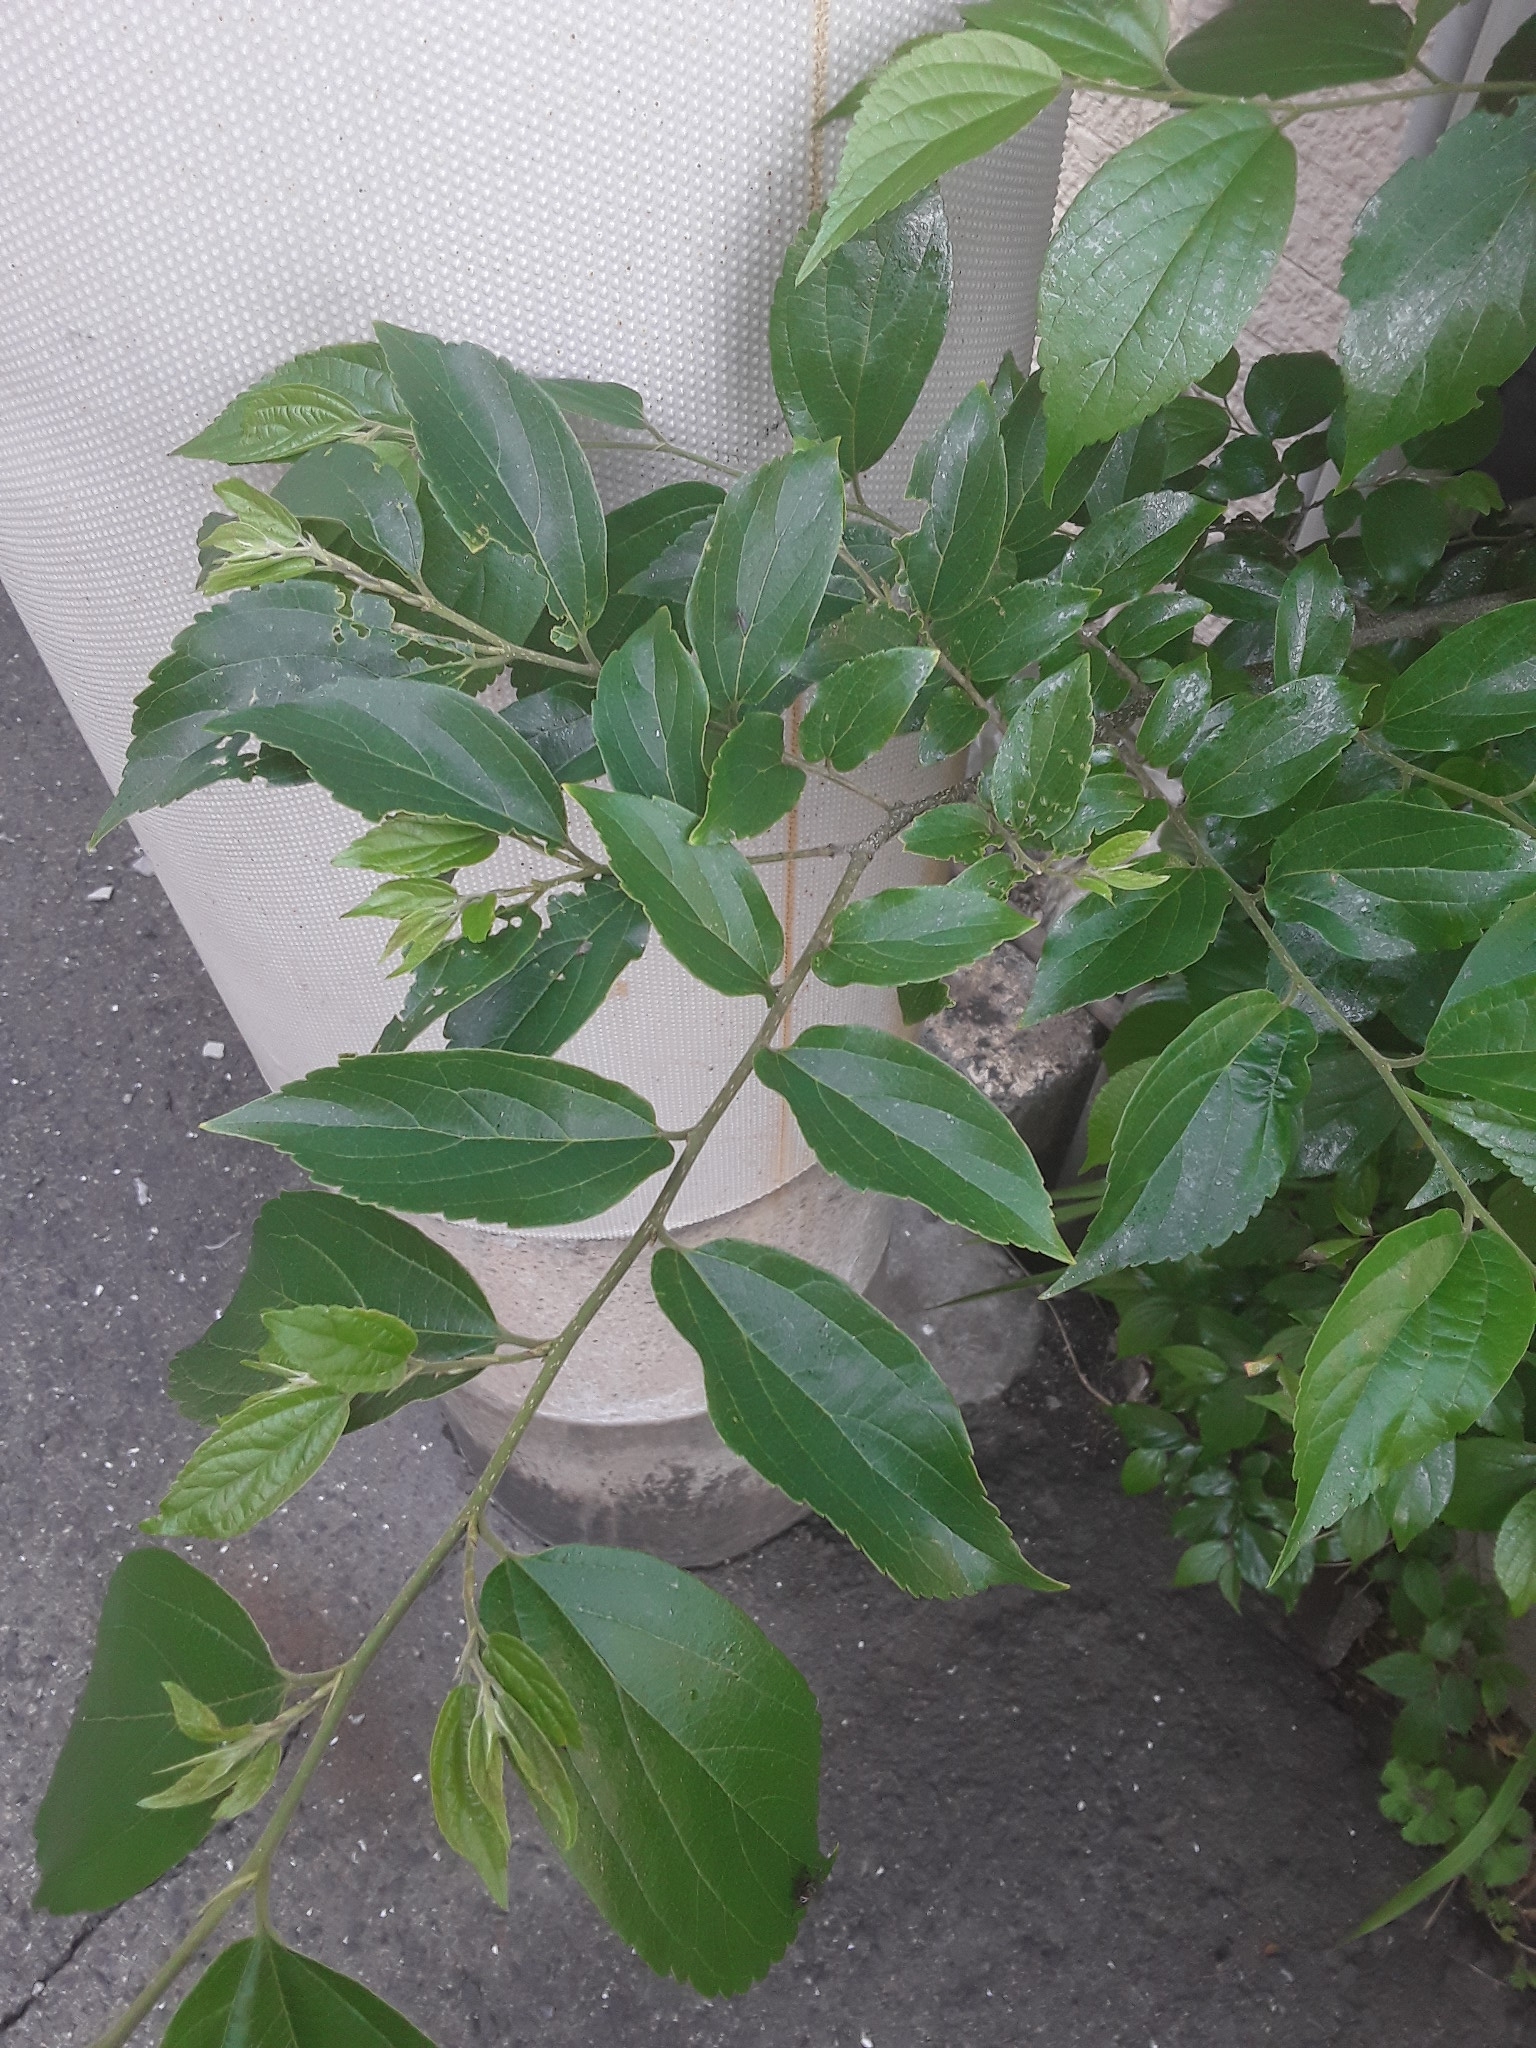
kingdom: Plantae
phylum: Tracheophyta
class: Magnoliopsida
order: Rosales
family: Cannabaceae
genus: Celtis
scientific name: Celtis sinensis
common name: Chinese hackberry
